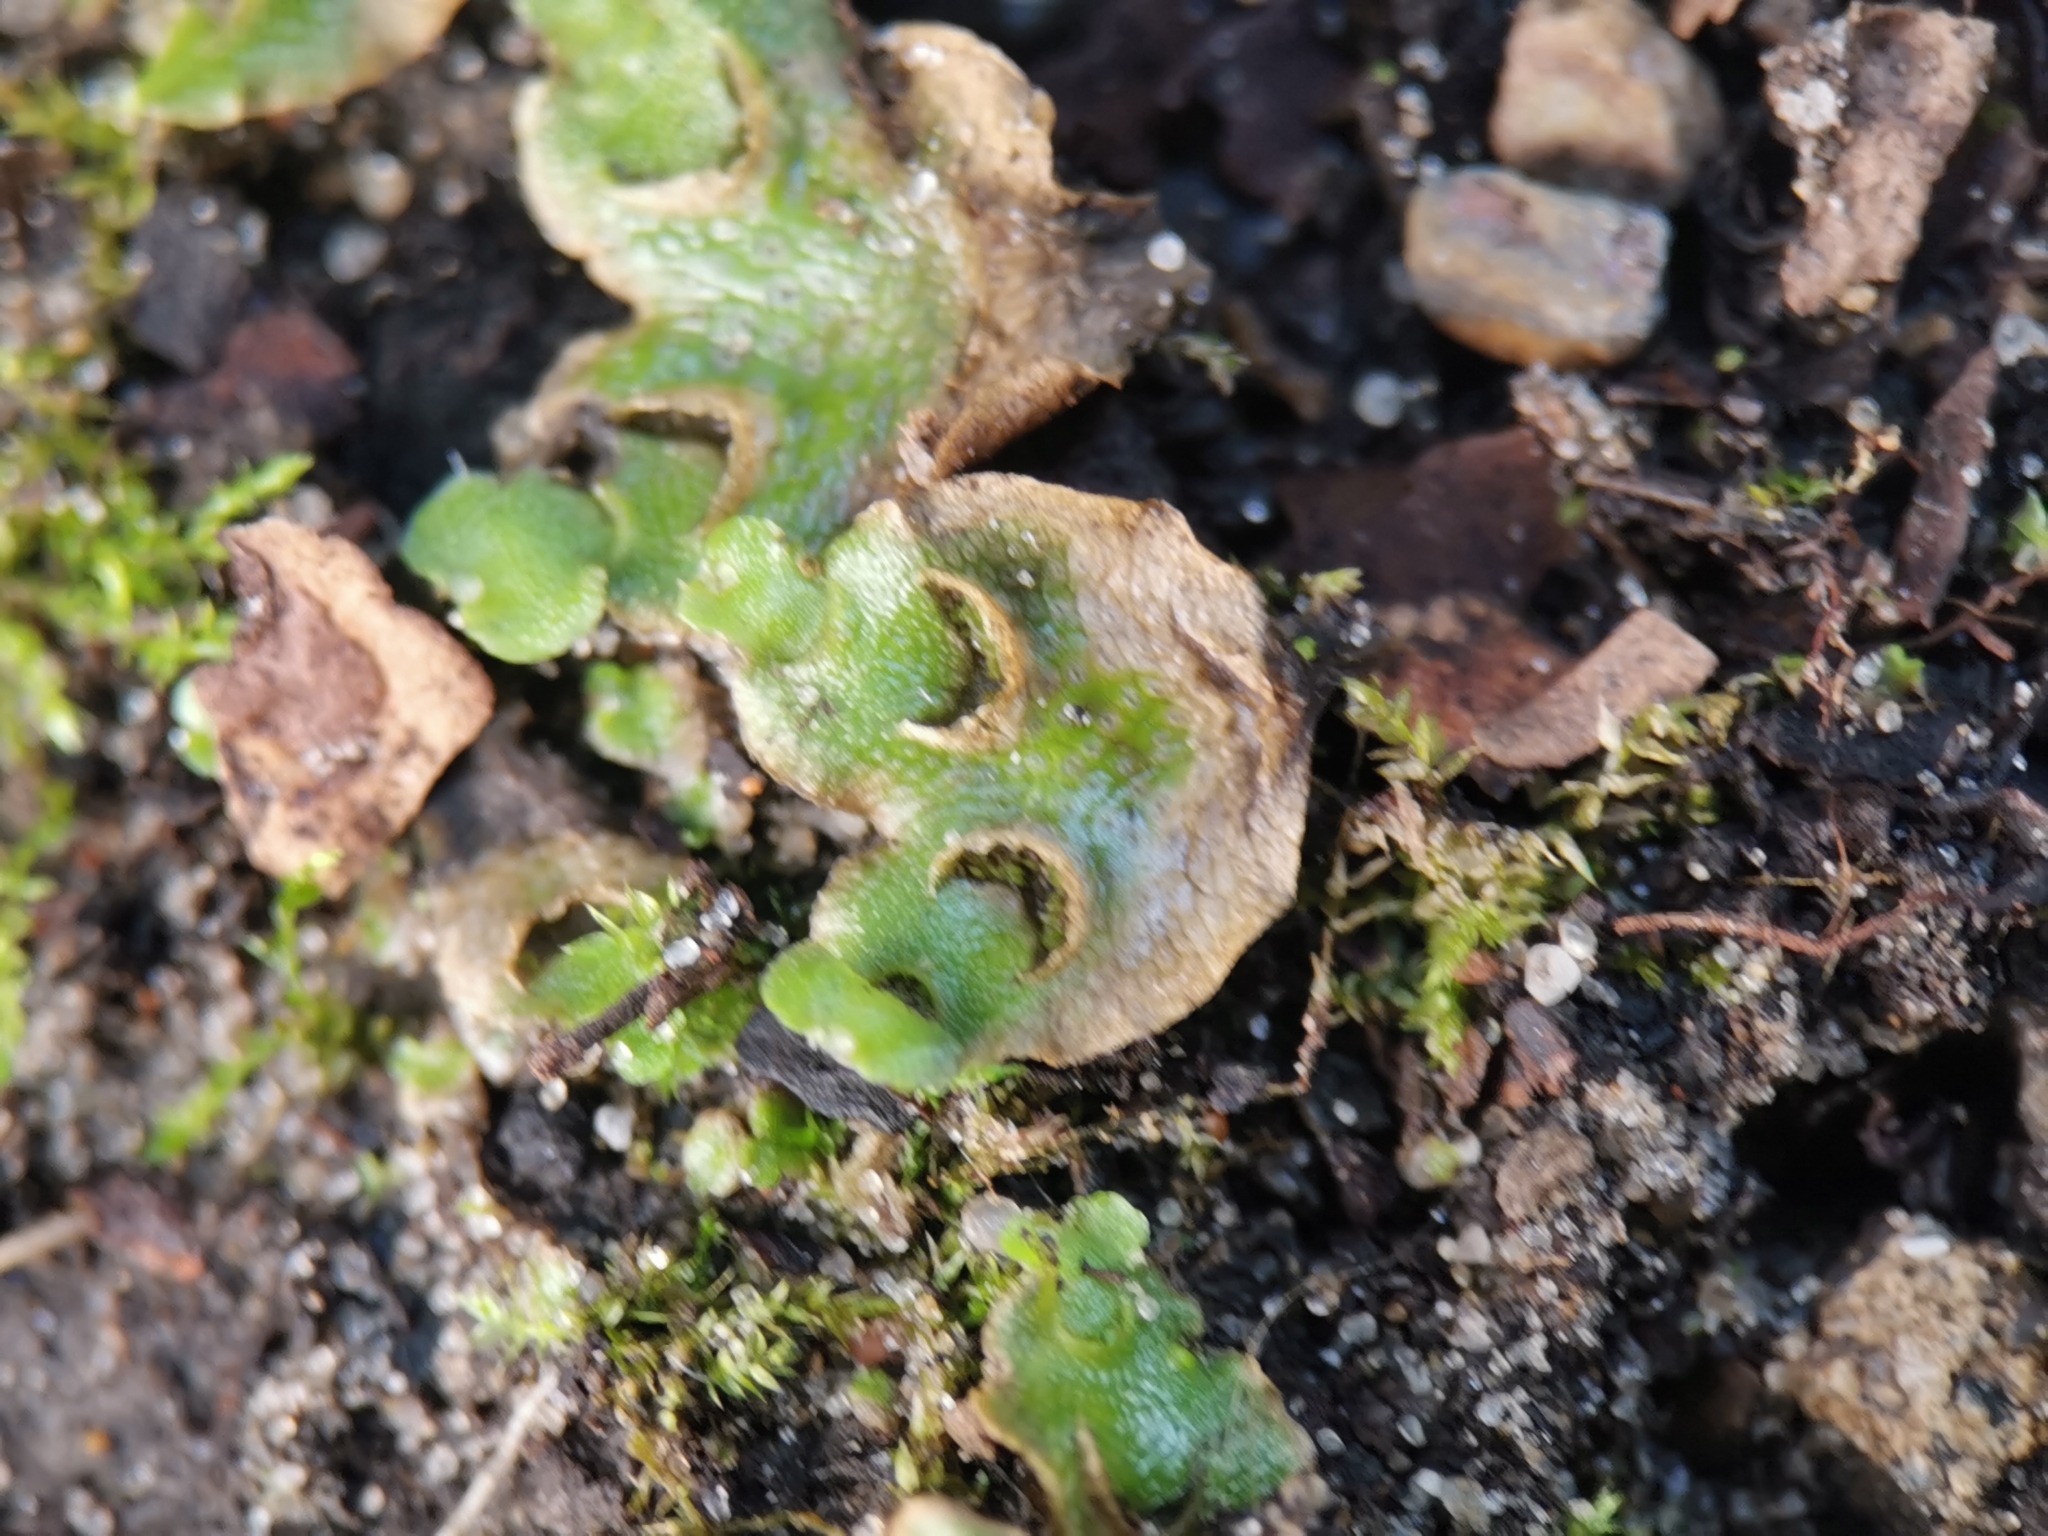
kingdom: Plantae
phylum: Marchantiophyta
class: Marchantiopsida
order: Lunulariales
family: Lunulariaceae
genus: Lunularia
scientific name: Lunularia cruciata
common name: Crescent-cup liverwort
